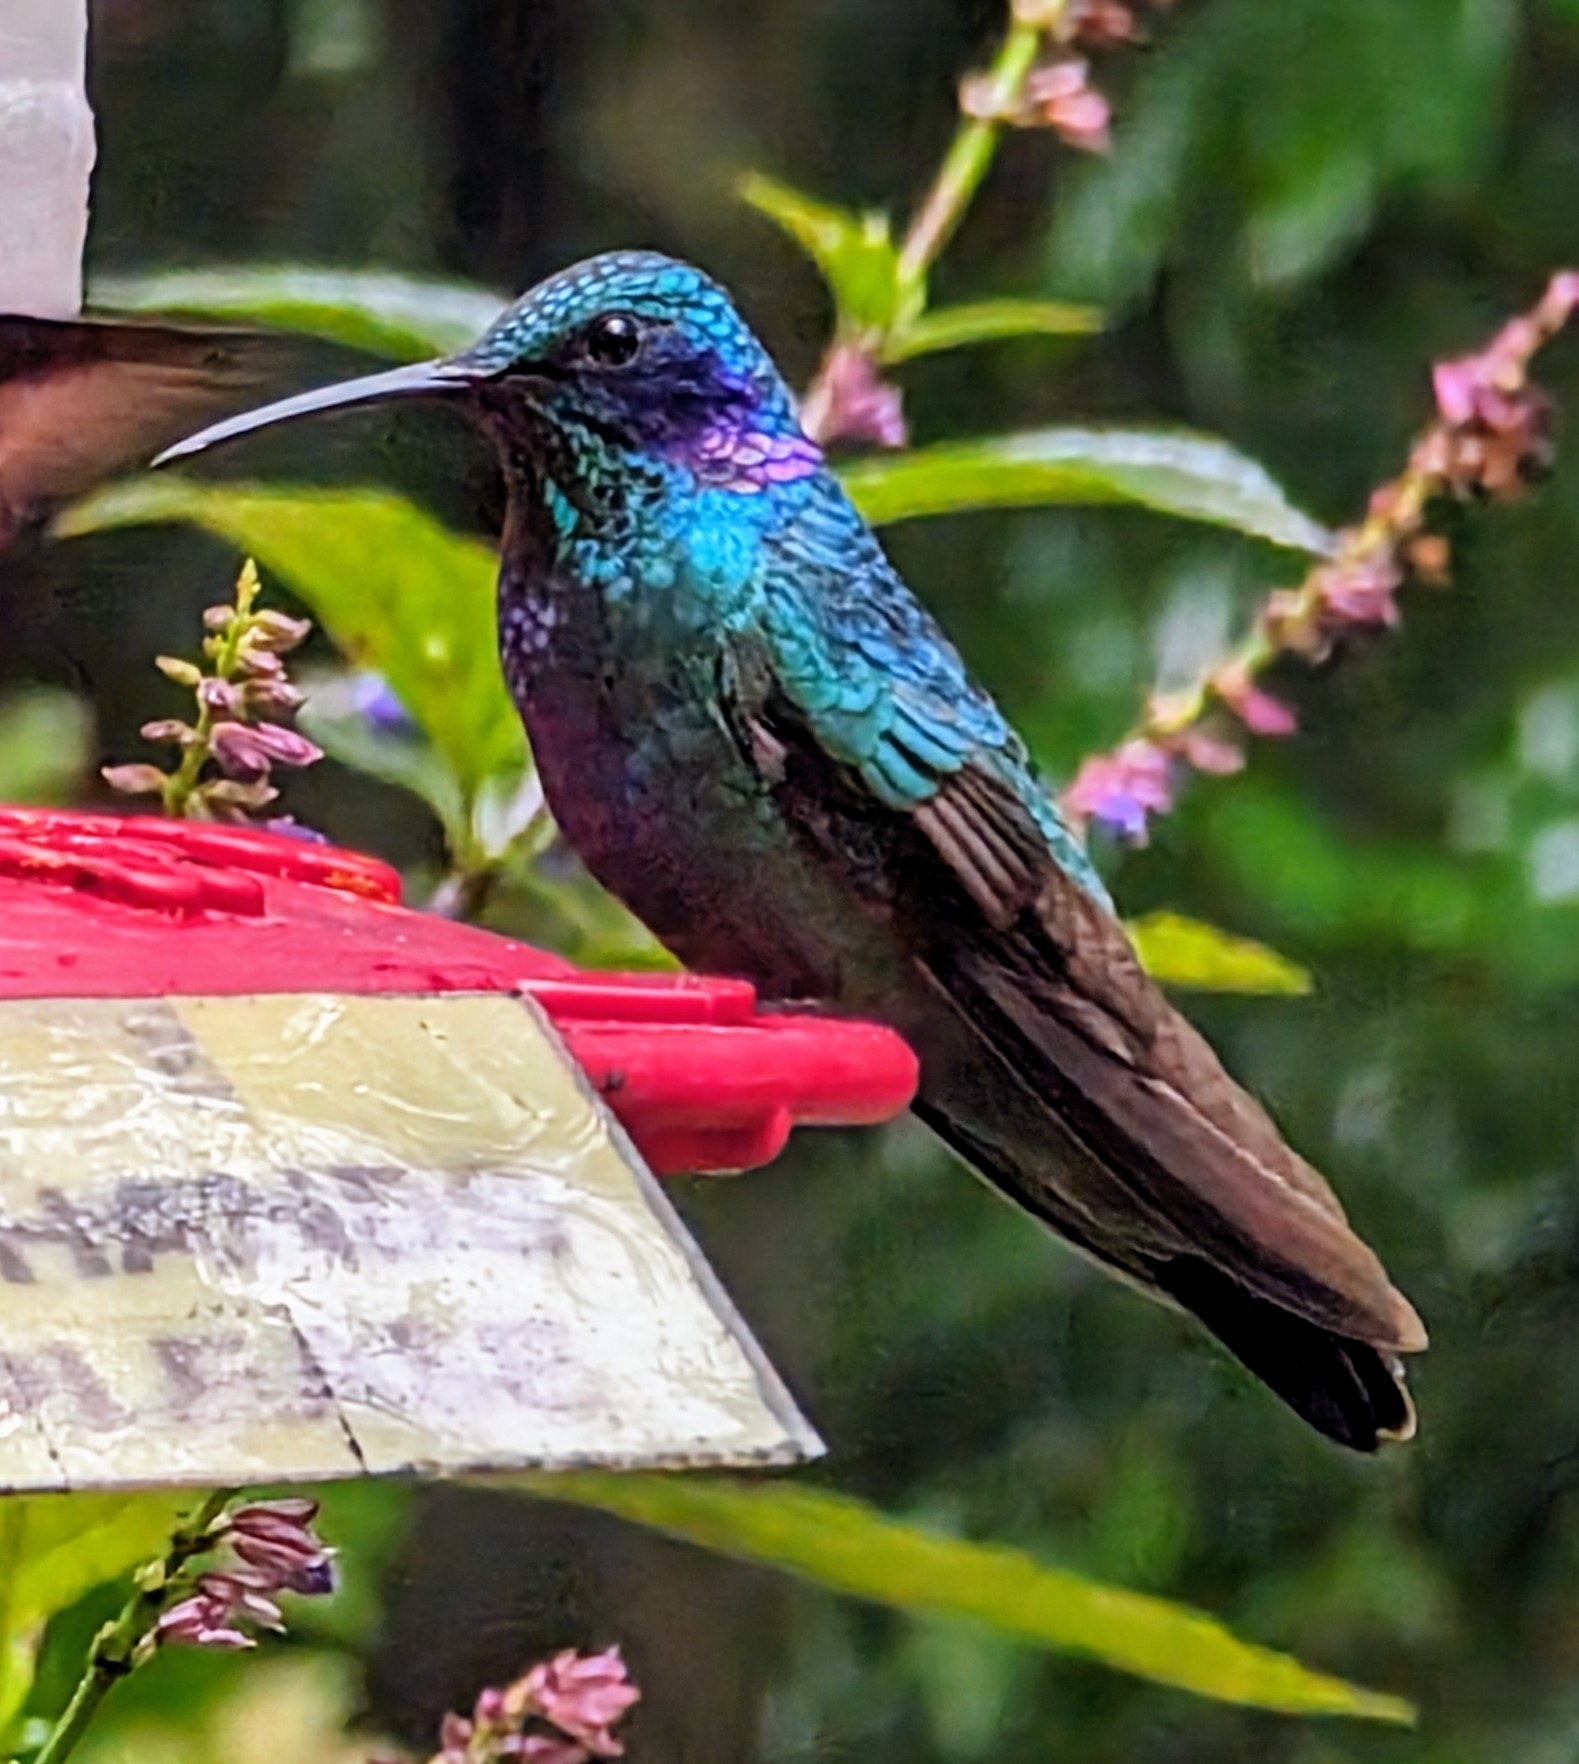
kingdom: Animalia
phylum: Chordata
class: Aves
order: Apodiformes
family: Trochilidae
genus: Colibri
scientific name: Colibri cyanotus
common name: Lesser violetear
